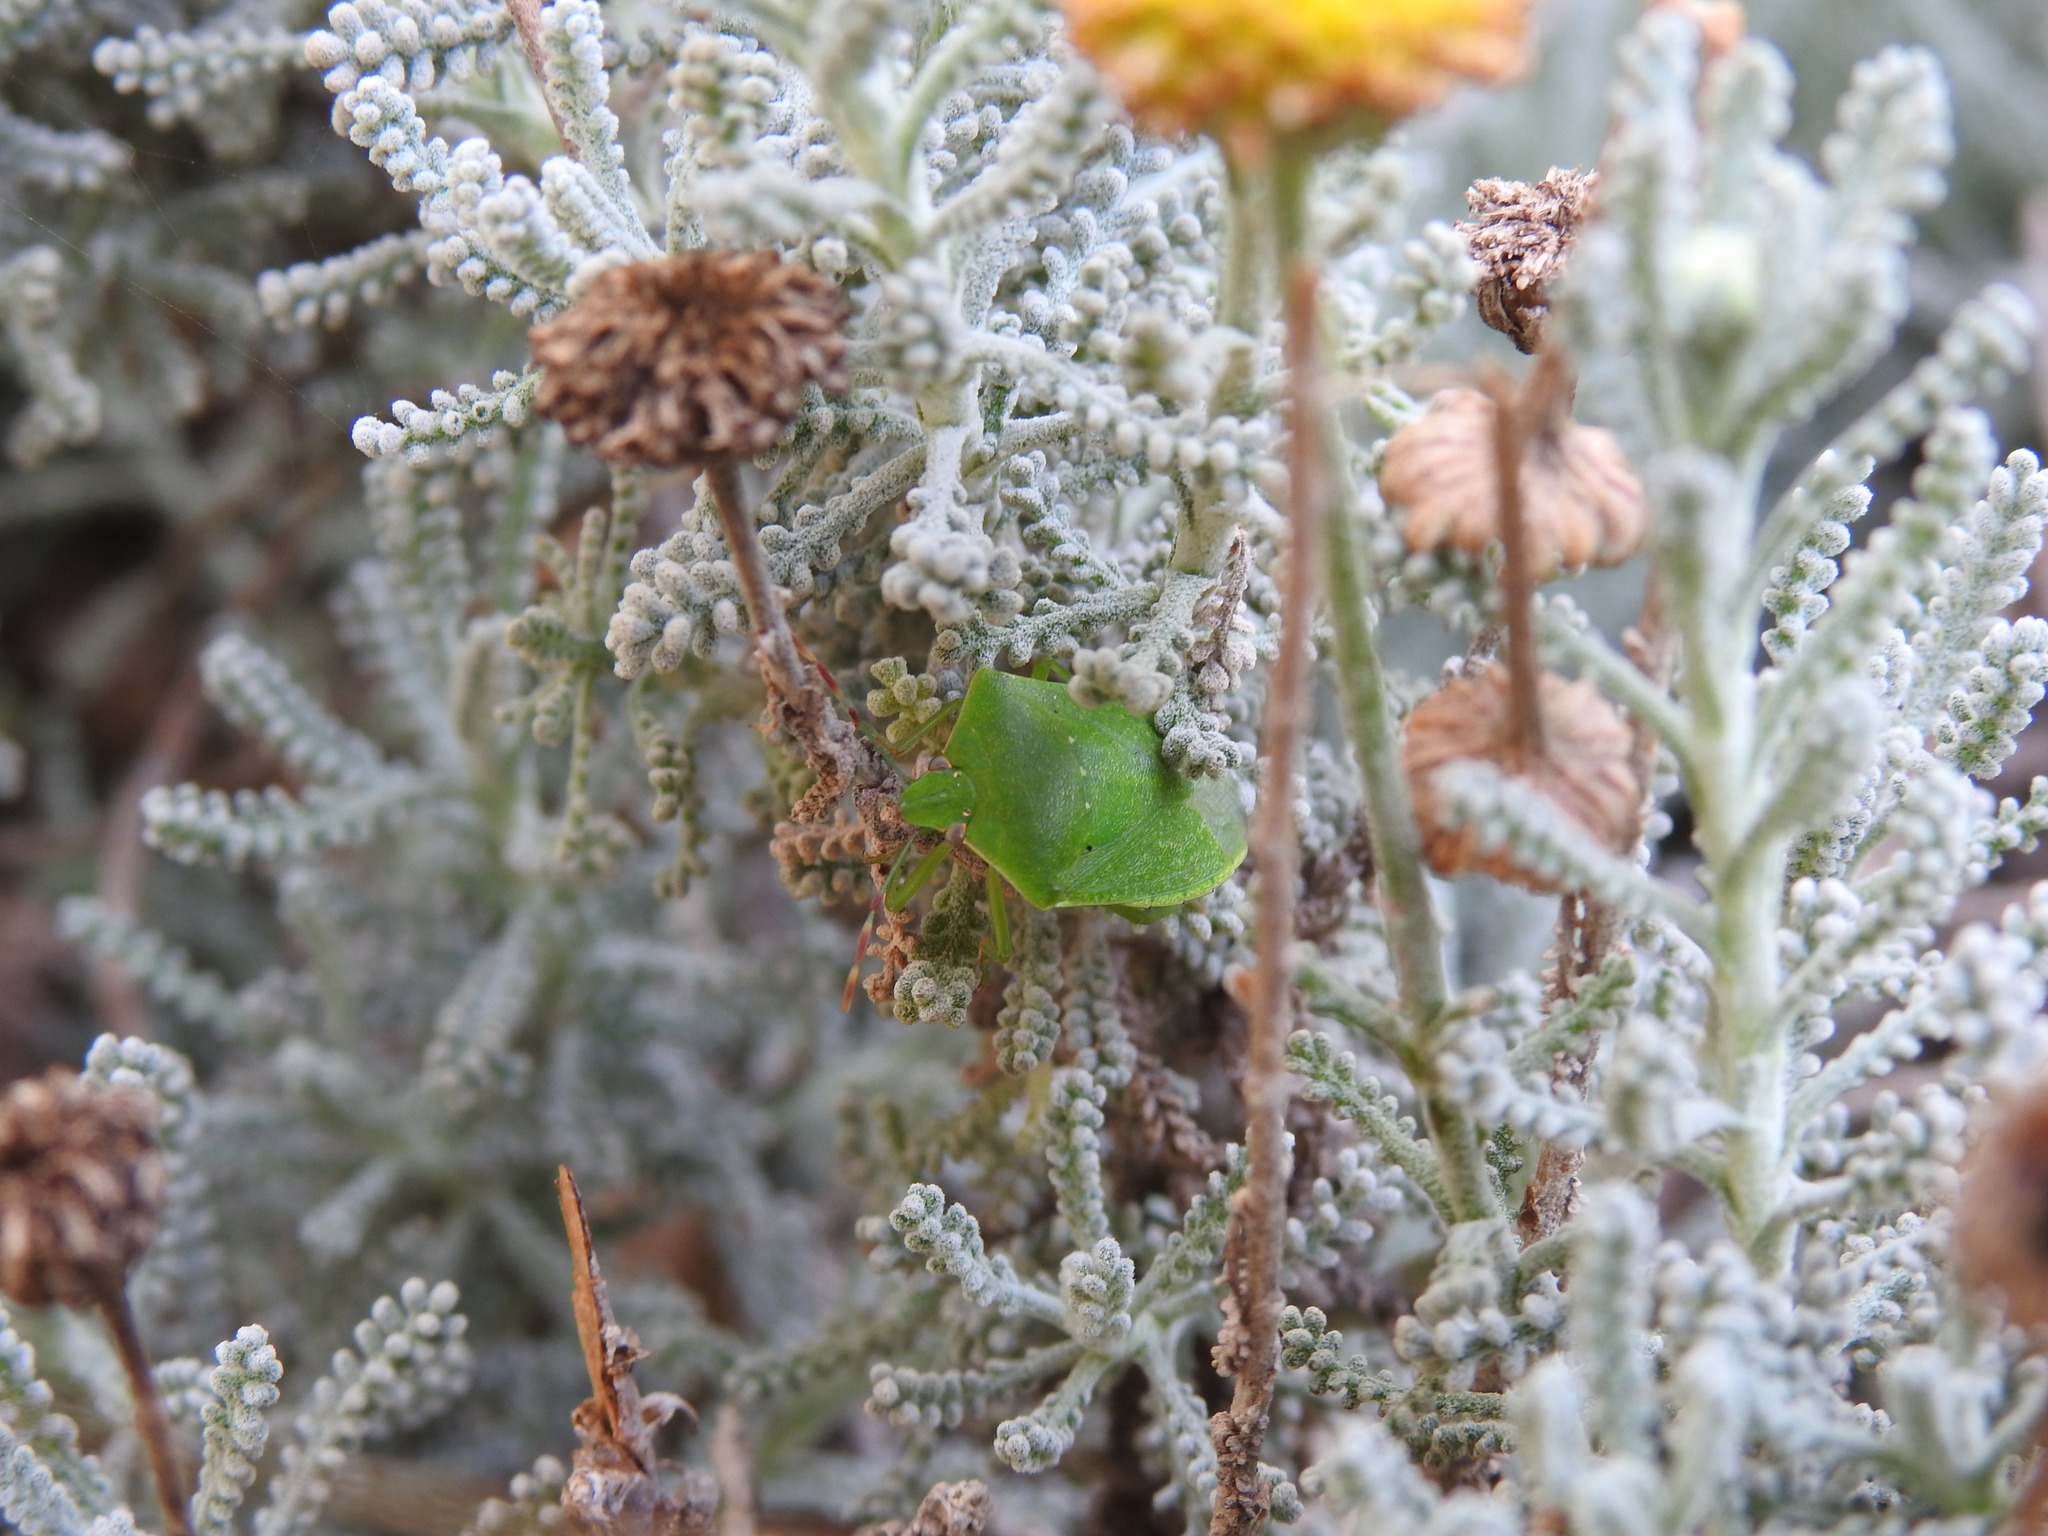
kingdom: Animalia
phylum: Arthropoda
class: Insecta
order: Hemiptera
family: Pentatomidae
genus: Nezara
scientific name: Nezara viridula
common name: Southern green stink bug
